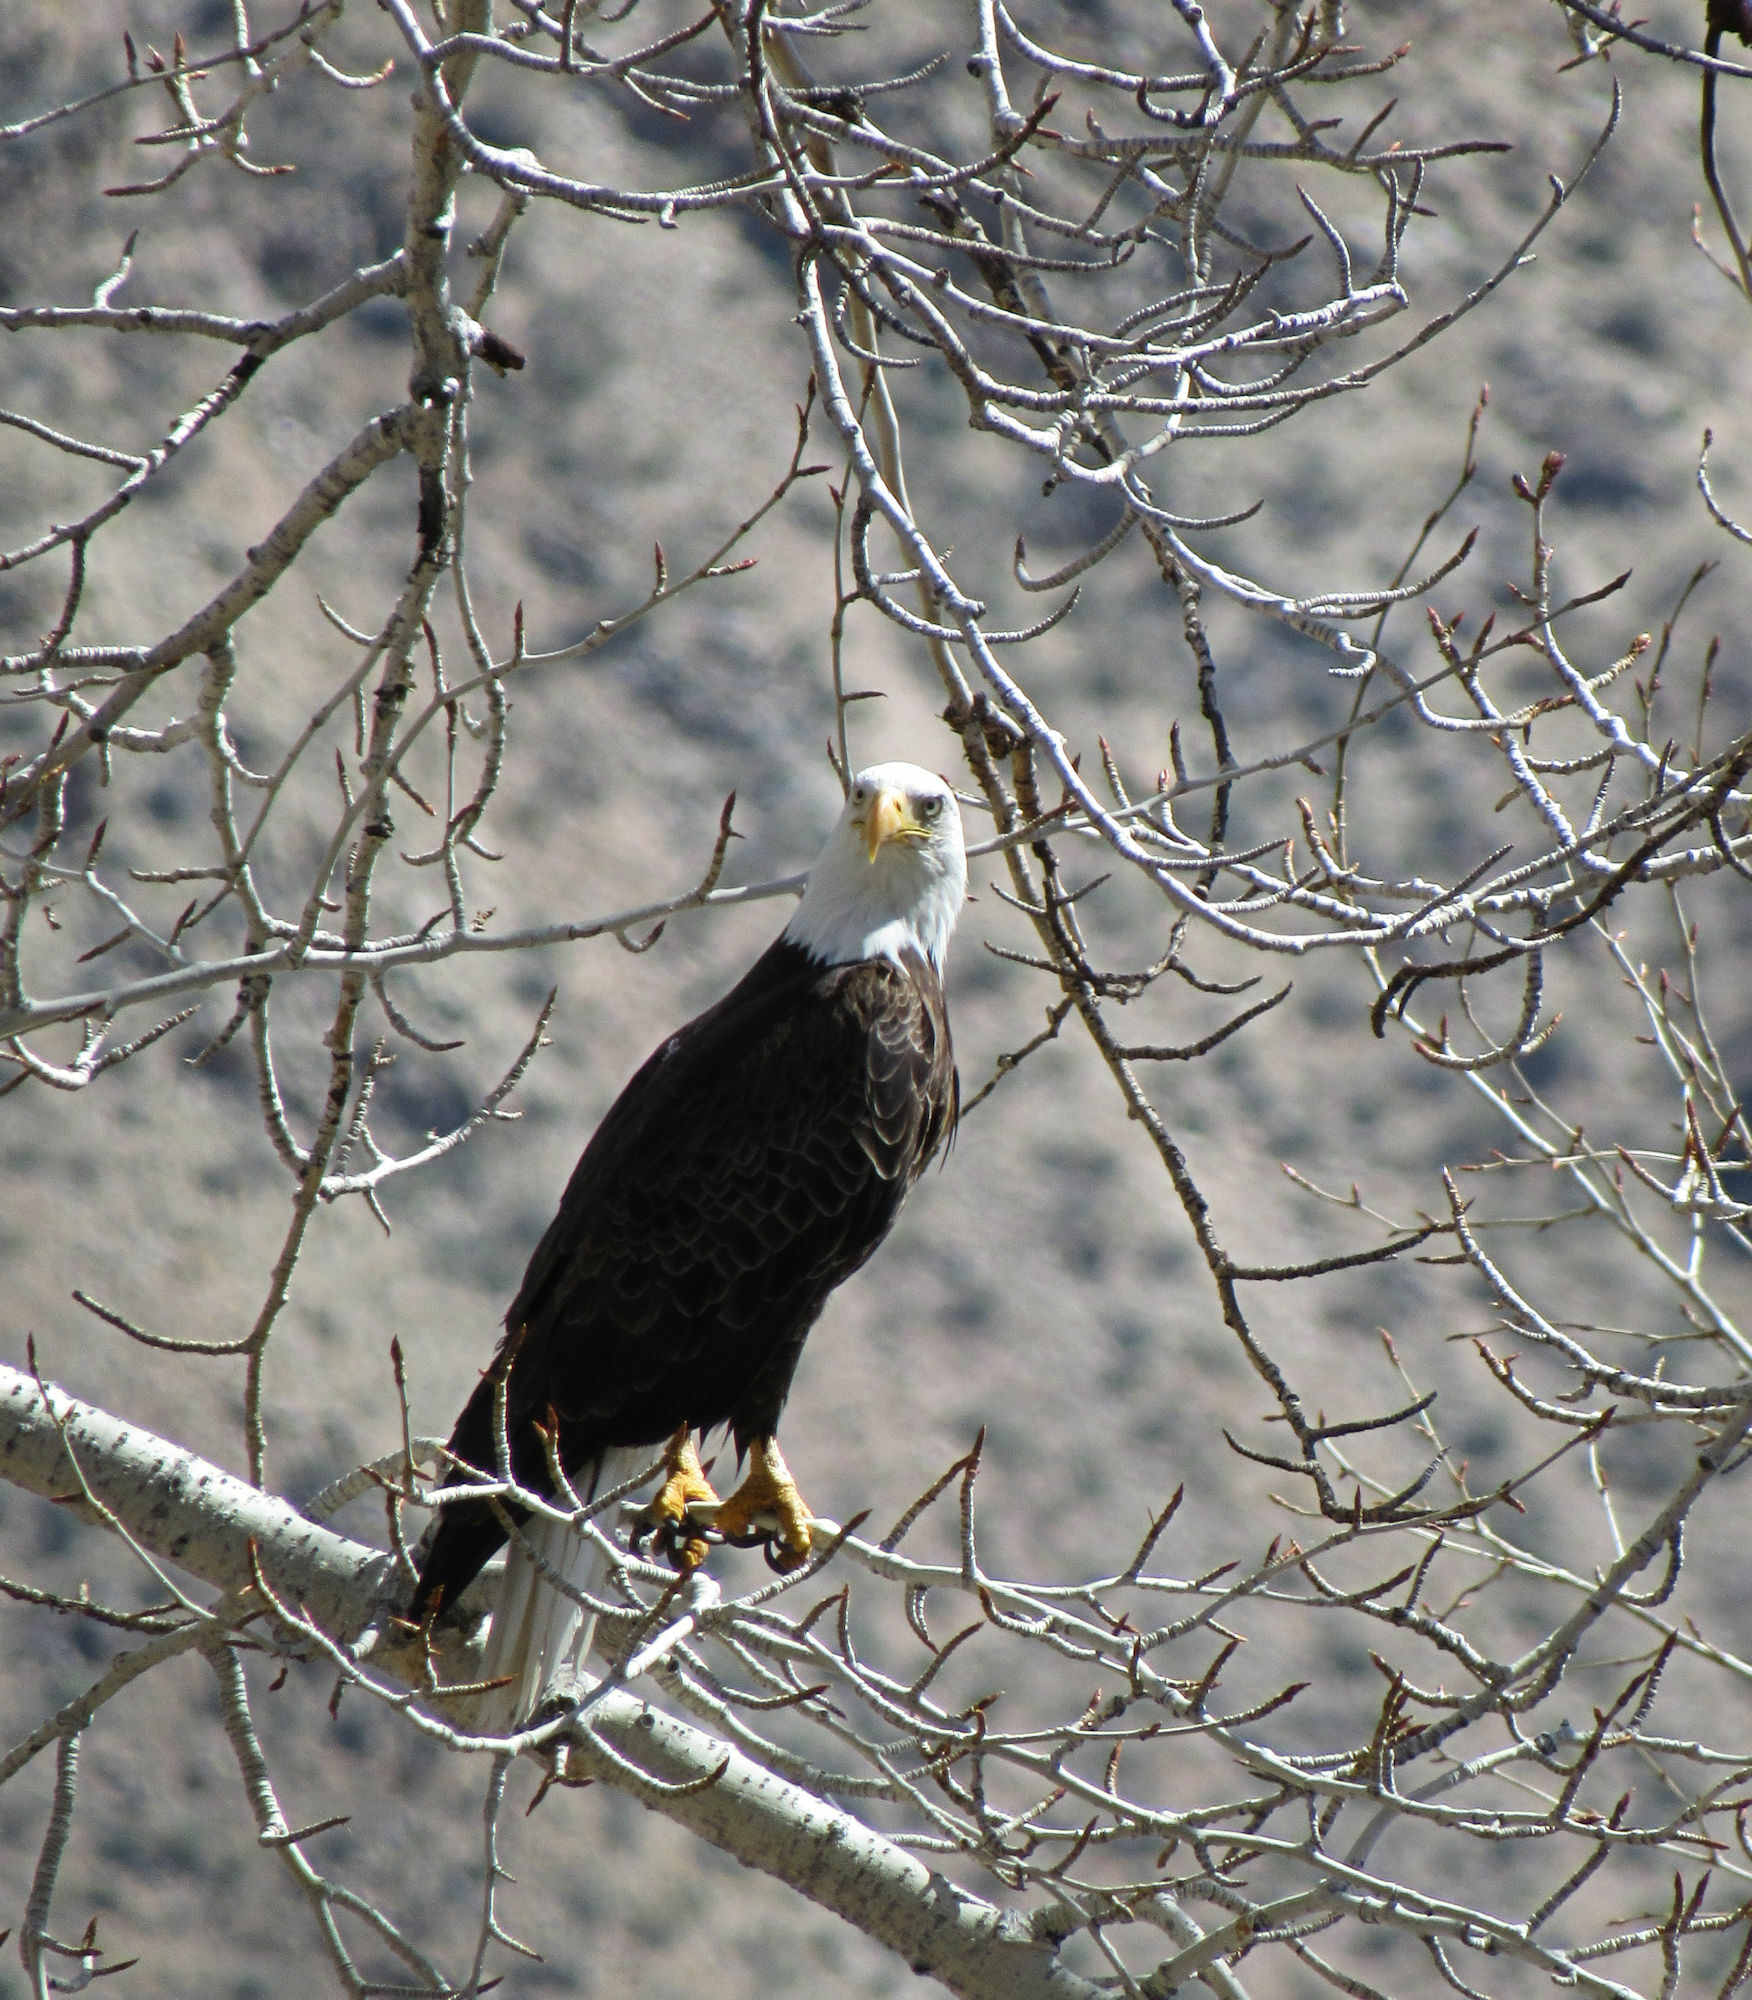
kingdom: Animalia
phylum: Chordata
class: Aves
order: Accipitriformes
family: Accipitridae
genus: Haliaeetus
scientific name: Haliaeetus leucocephalus
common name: Bald eagle
